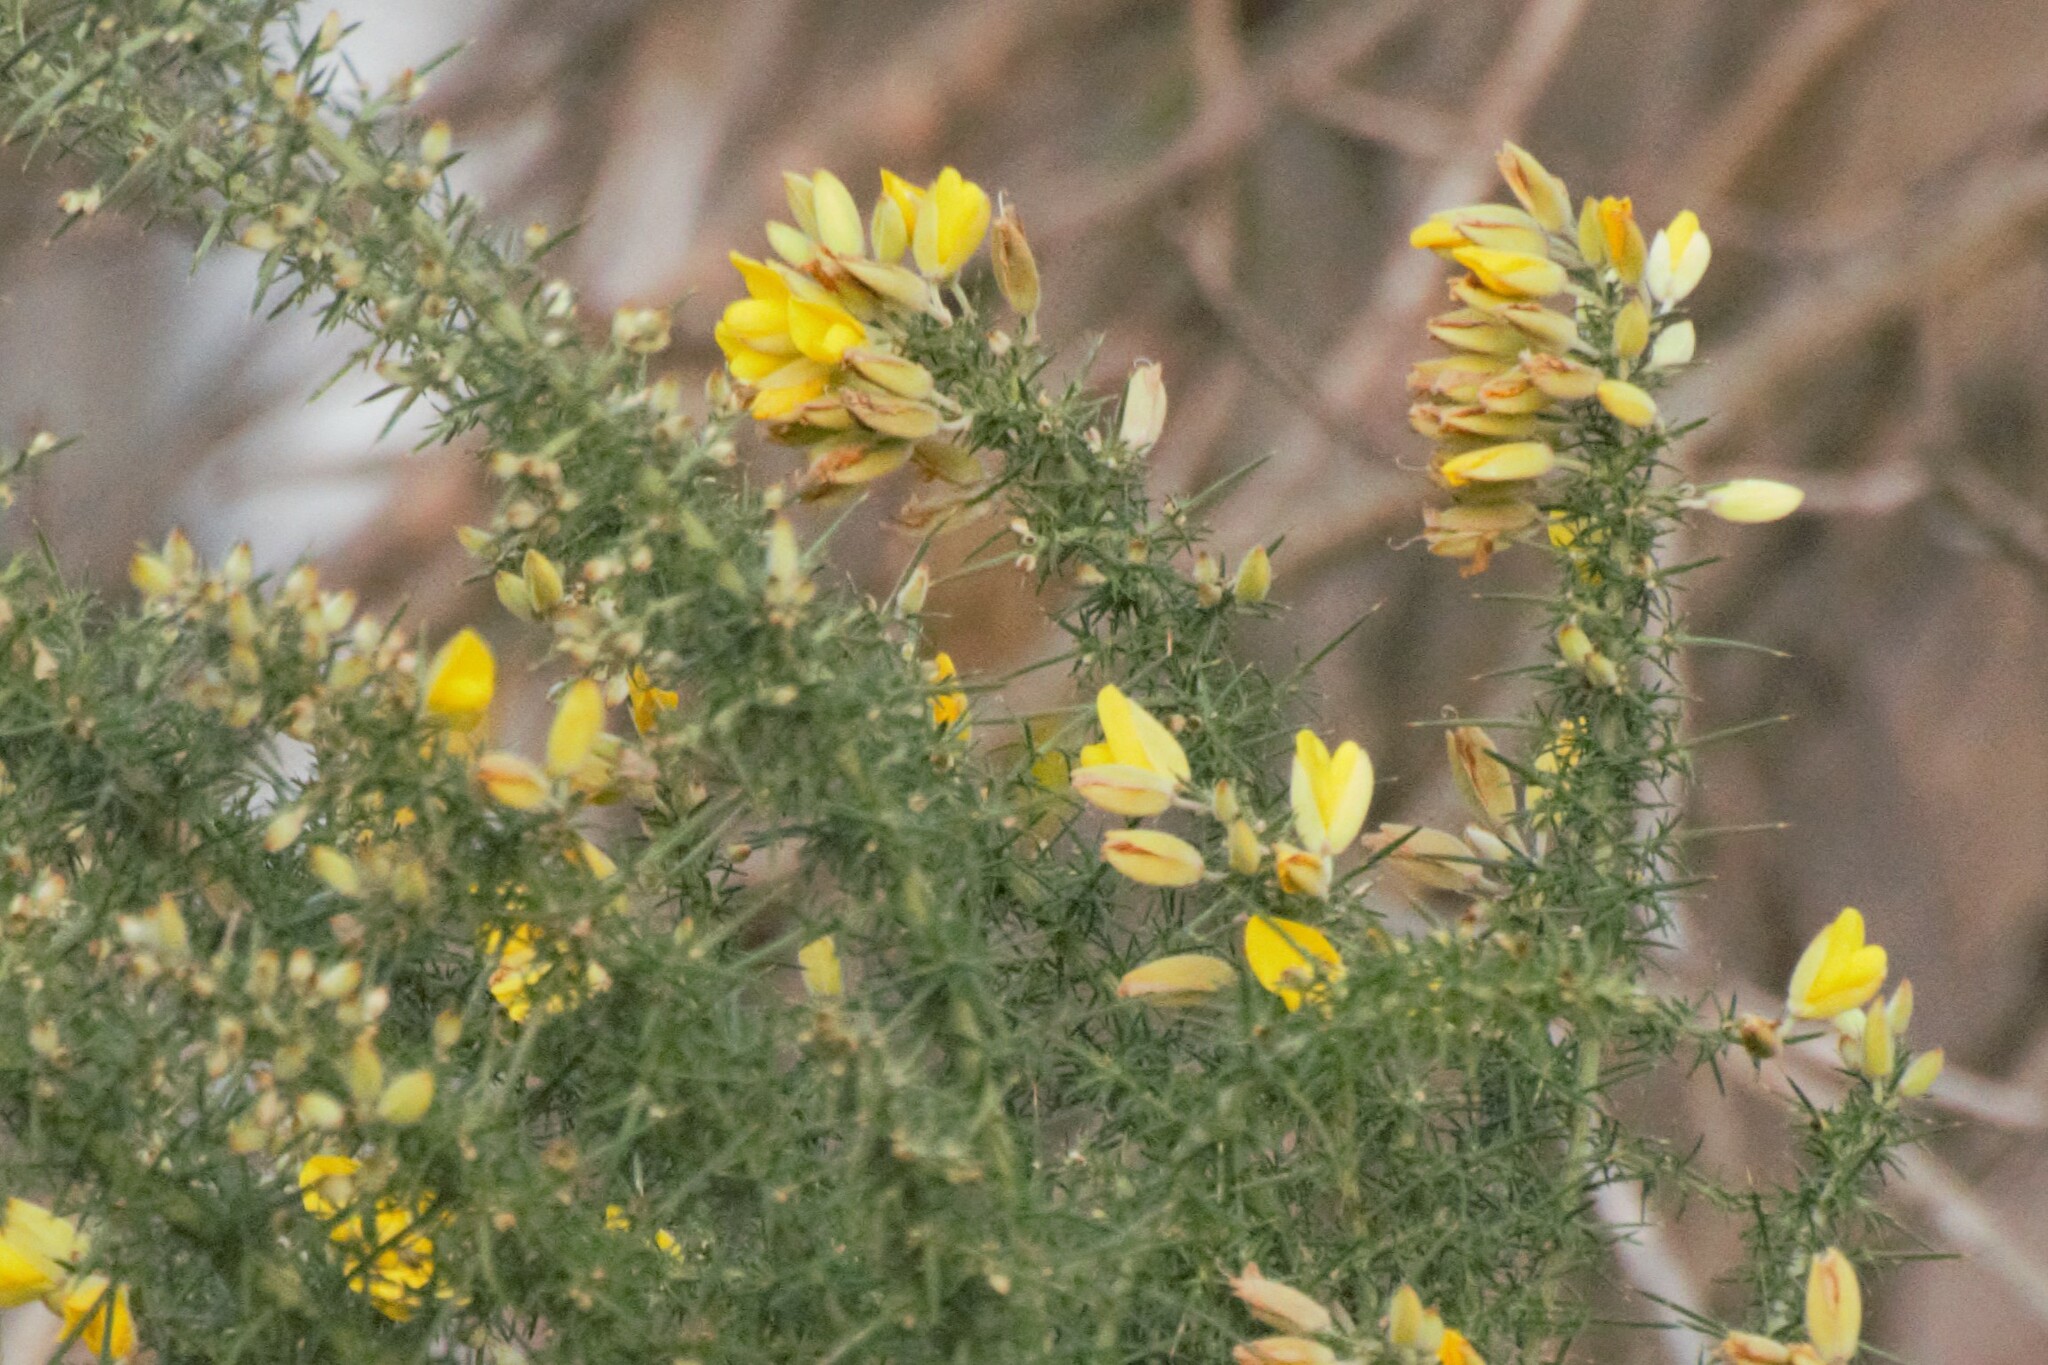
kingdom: Plantae
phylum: Tracheophyta
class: Magnoliopsida
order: Fabales
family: Fabaceae
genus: Ulex
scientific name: Ulex europaeus
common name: Common gorse
